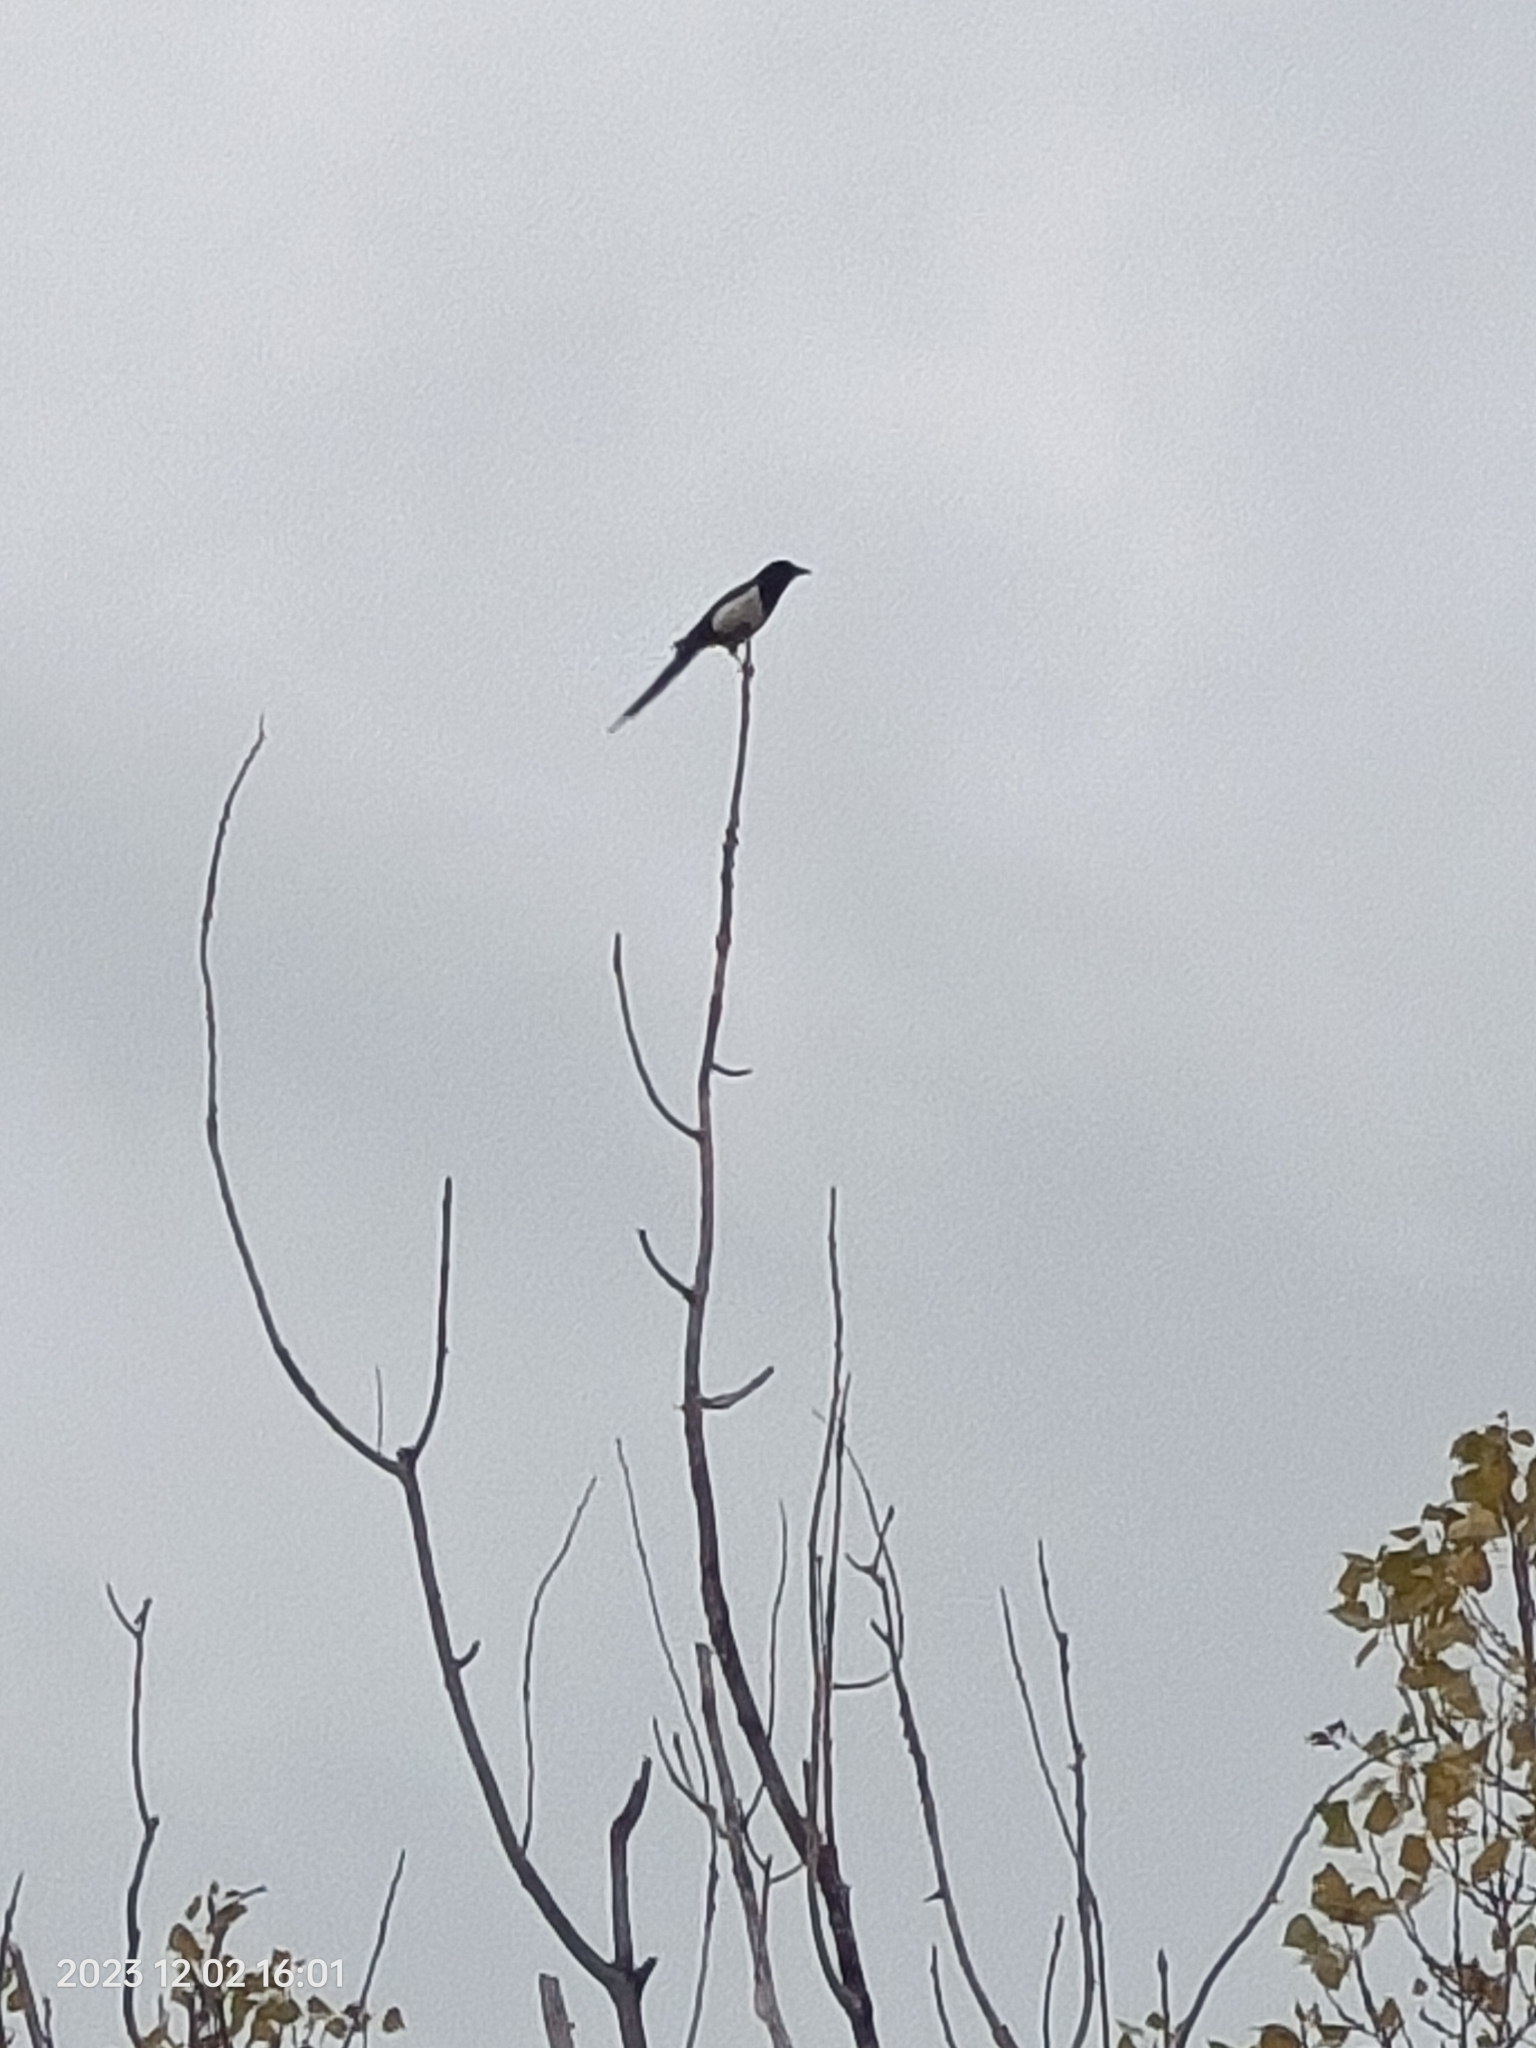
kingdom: Animalia
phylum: Chordata
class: Aves
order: Passeriformes
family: Corvidae
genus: Pica
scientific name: Pica pica
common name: Eurasian magpie
